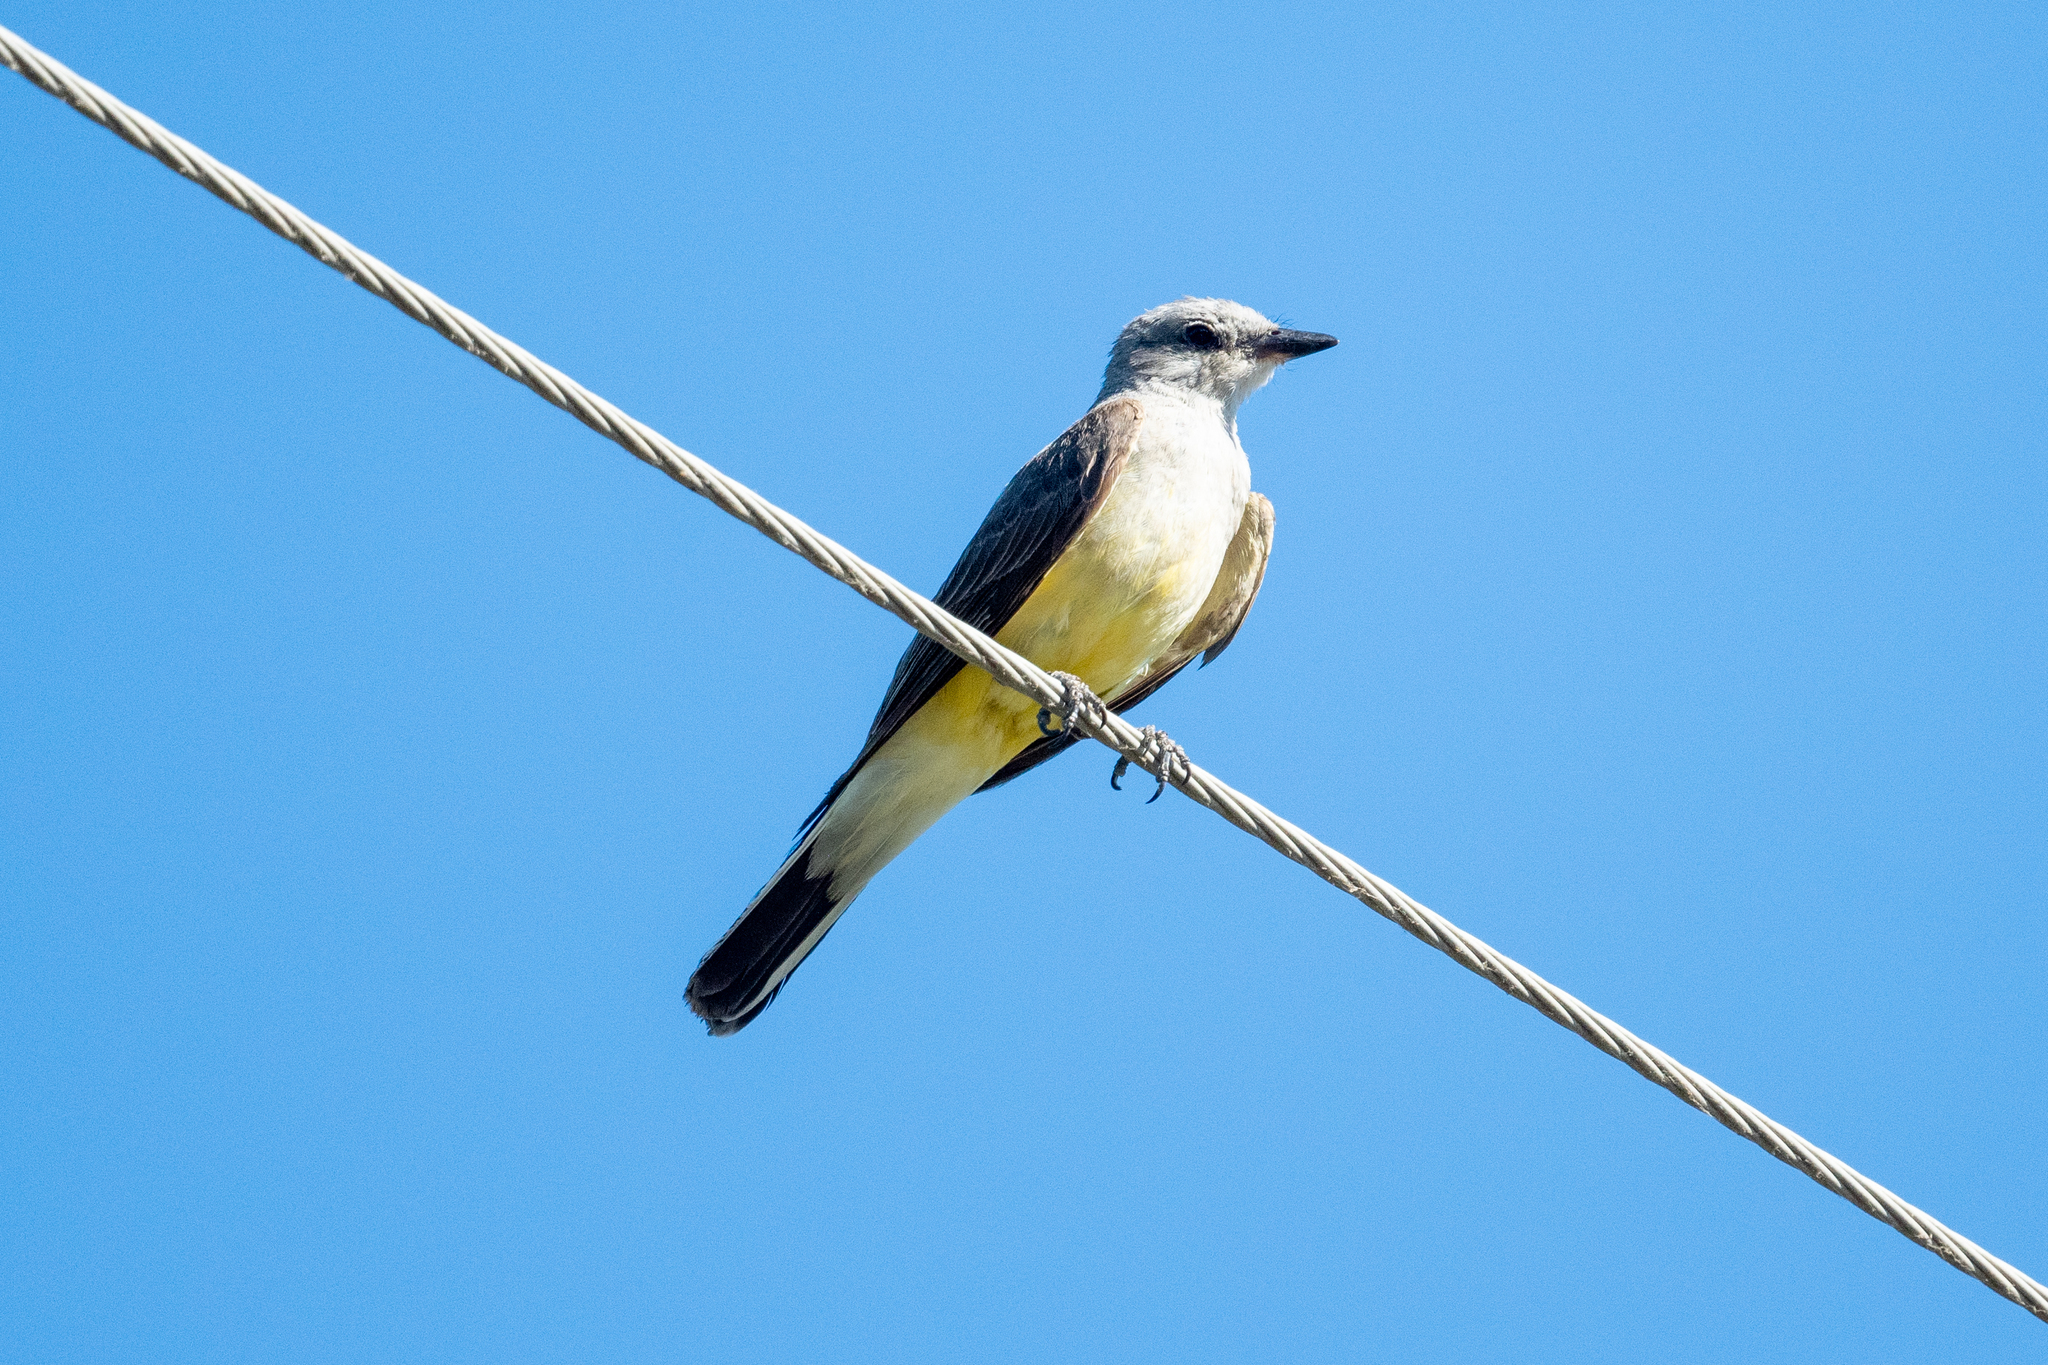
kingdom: Animalia
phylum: Chordata
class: Aves
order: Passeriformes
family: Tyrannidae
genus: Tyrannus
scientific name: Tyrannus verticalis
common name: Western kingbird
